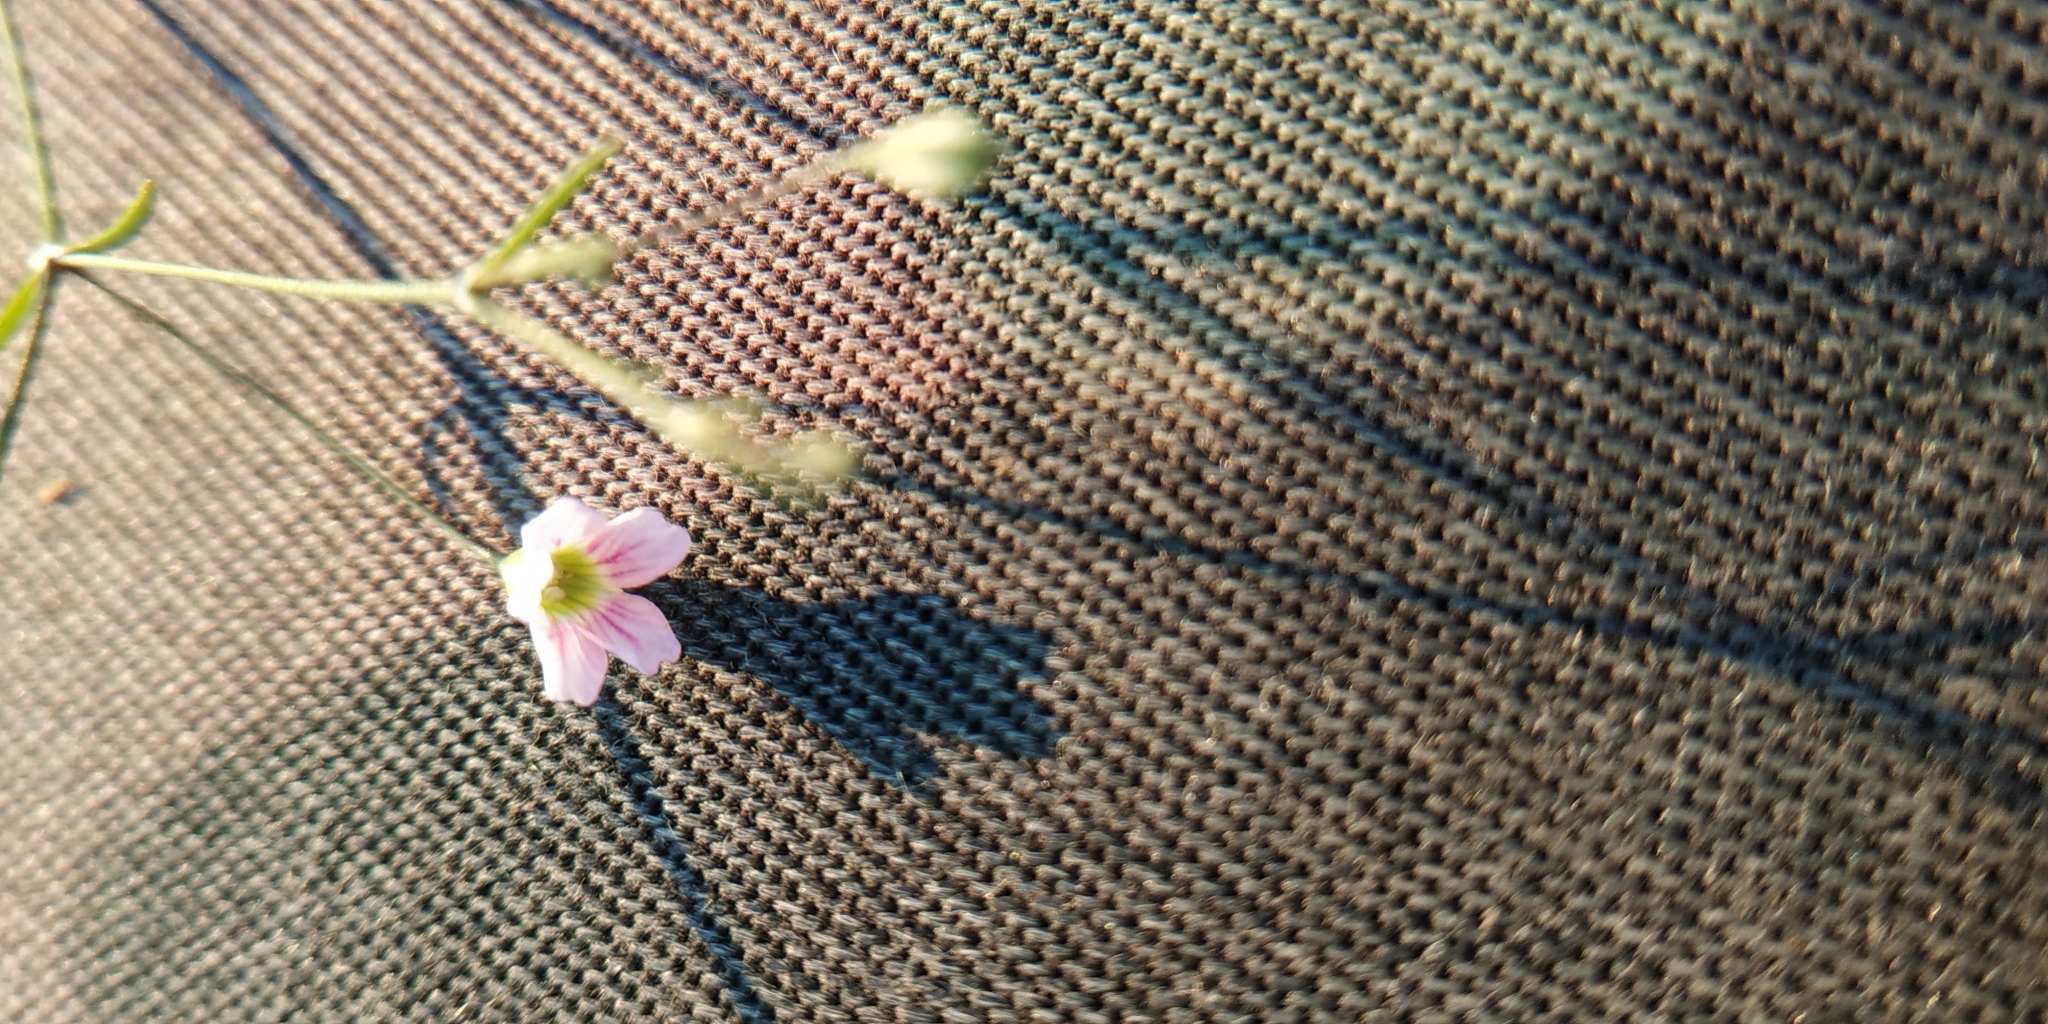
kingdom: Plantae
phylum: Tracheophyta
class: Magnoliopsida
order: Caryophyllales
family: Caryophyllaceae
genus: Psammophiliella
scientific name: Psammophiliella muralis
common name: Cushion baby's-breath
